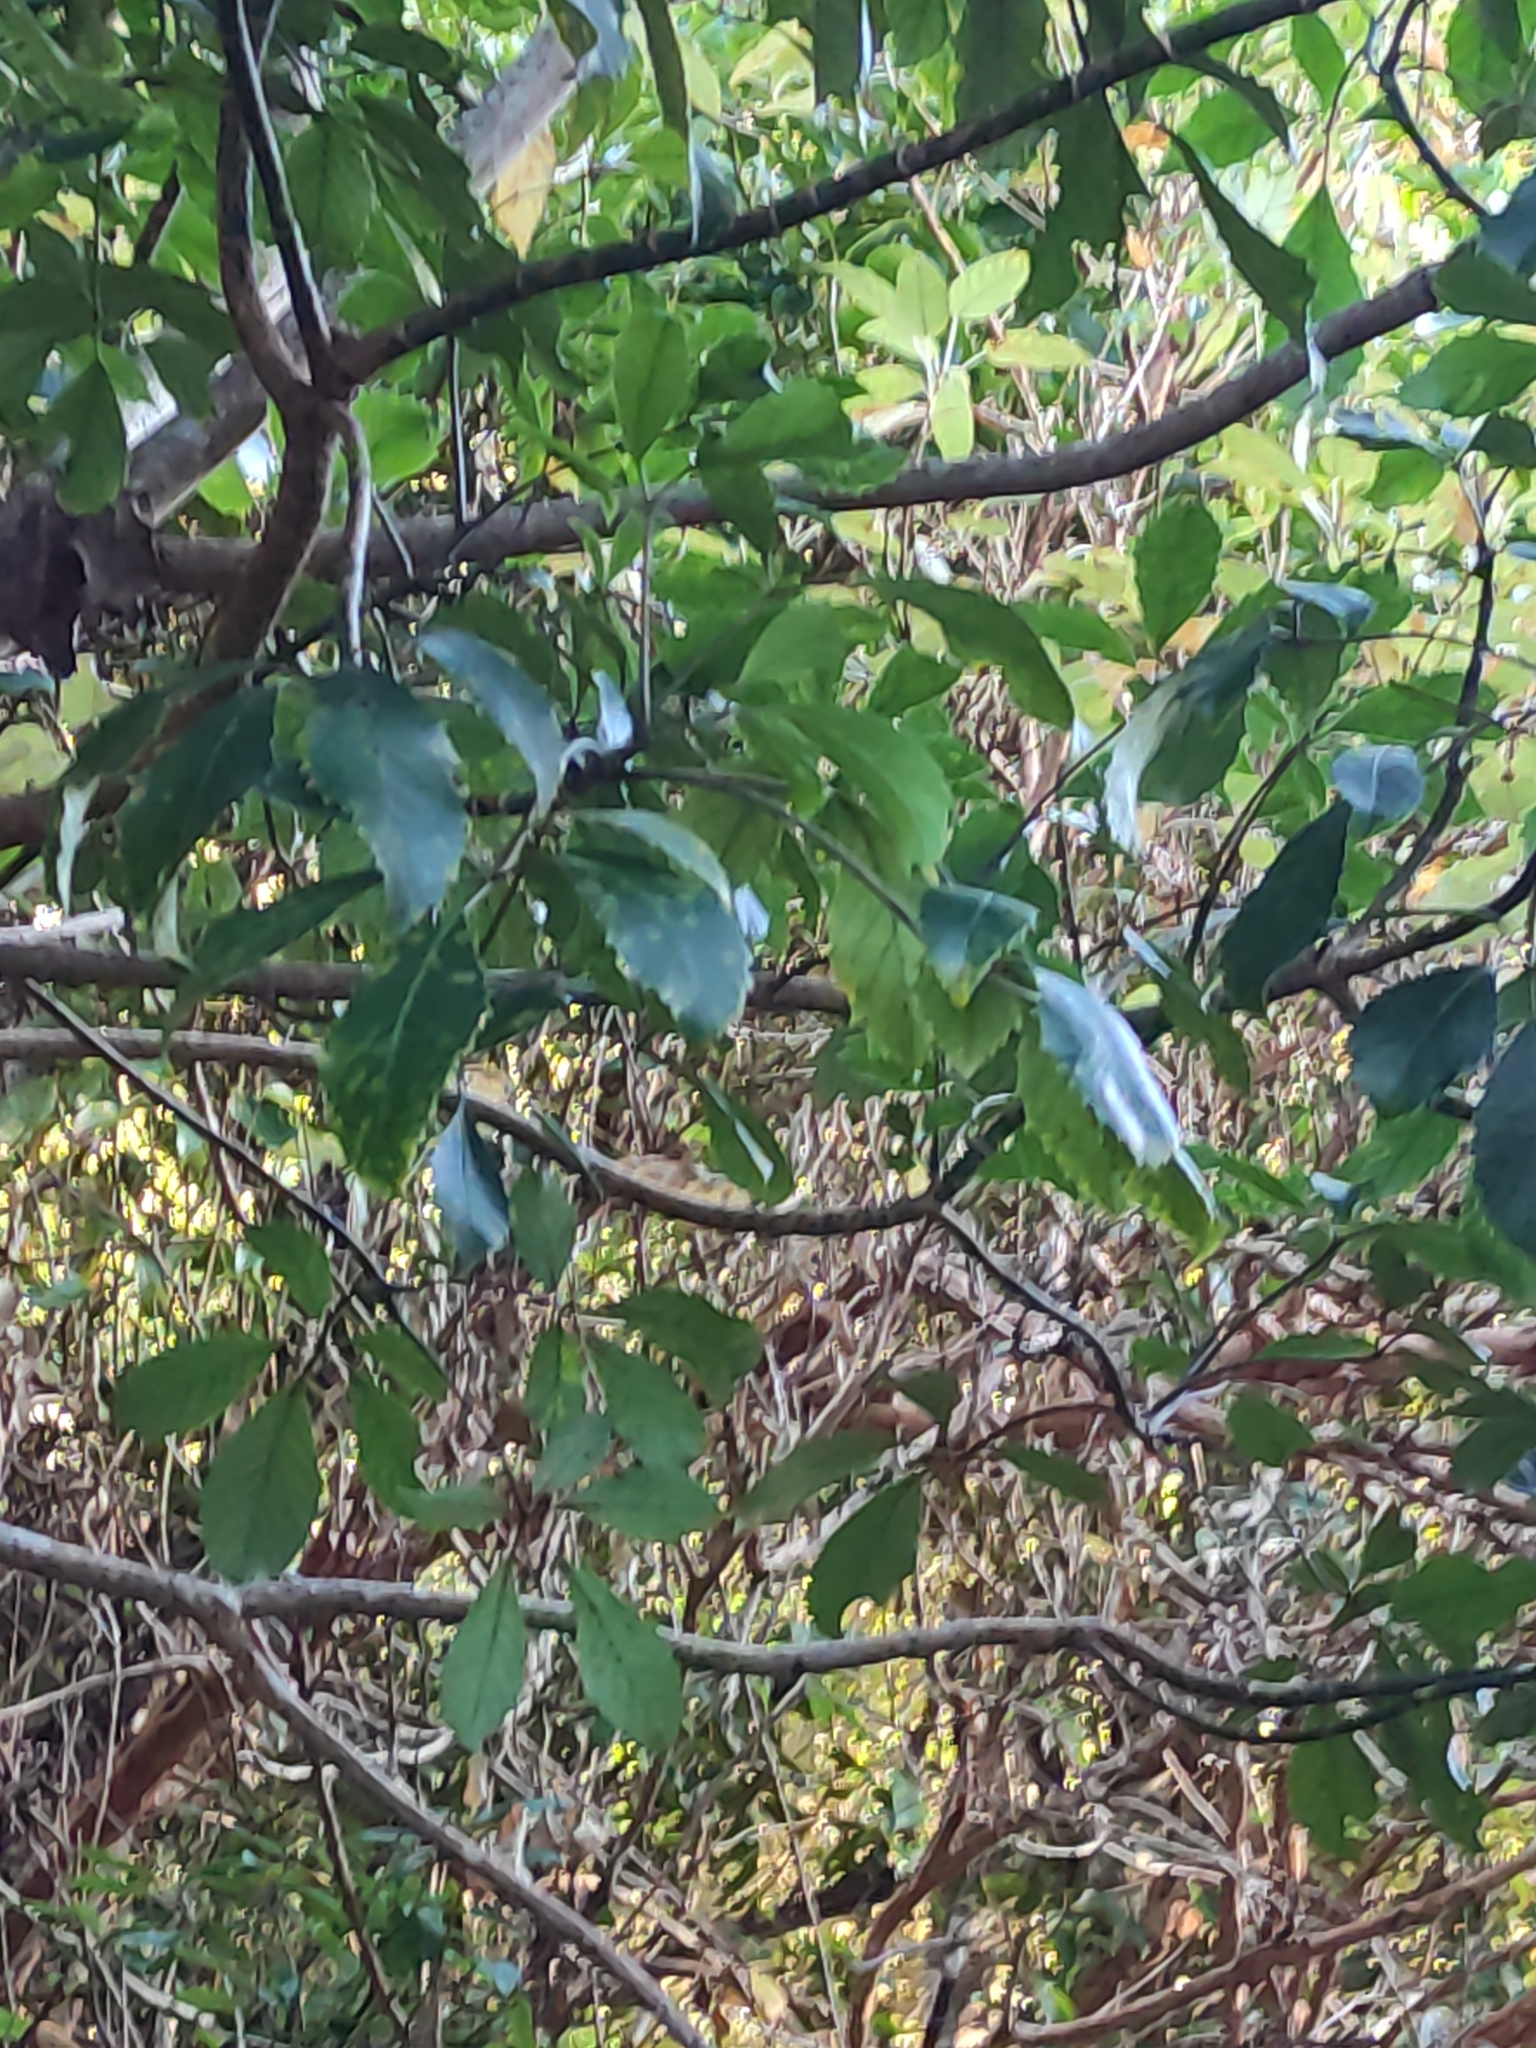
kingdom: Plantae
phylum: Tracheophyta
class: Magnoliopsida
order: Apiales
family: Araliaceae
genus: Neopanax
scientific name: Neopanax arboreus
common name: Five-fingers
